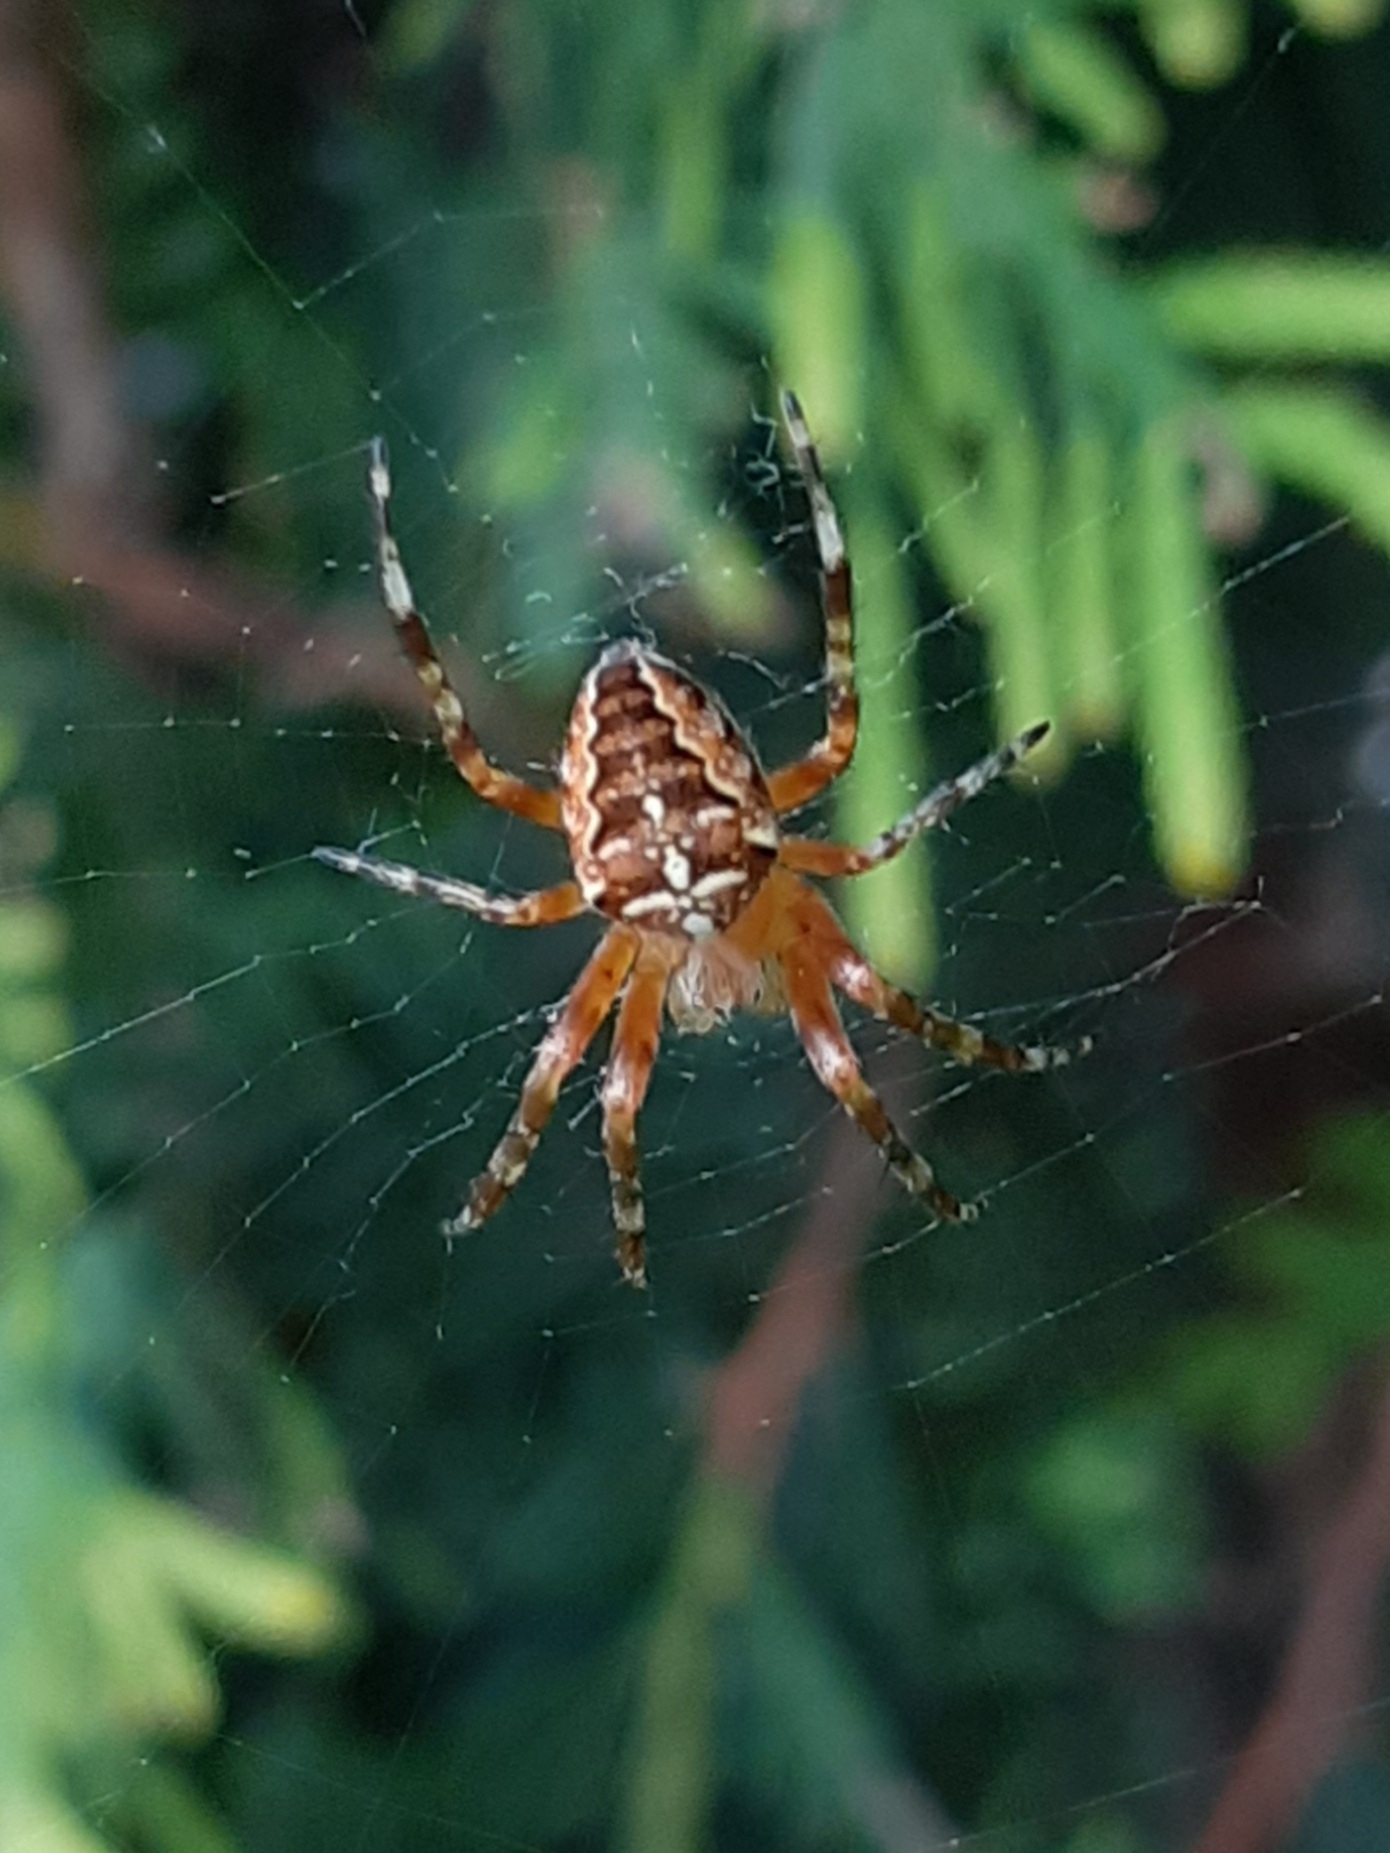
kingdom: Animalia
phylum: Arthropoda
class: Arachnida
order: Araneae
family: Araneidae
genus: Araneus
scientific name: Araneus diadematus
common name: Cross orbweaver
